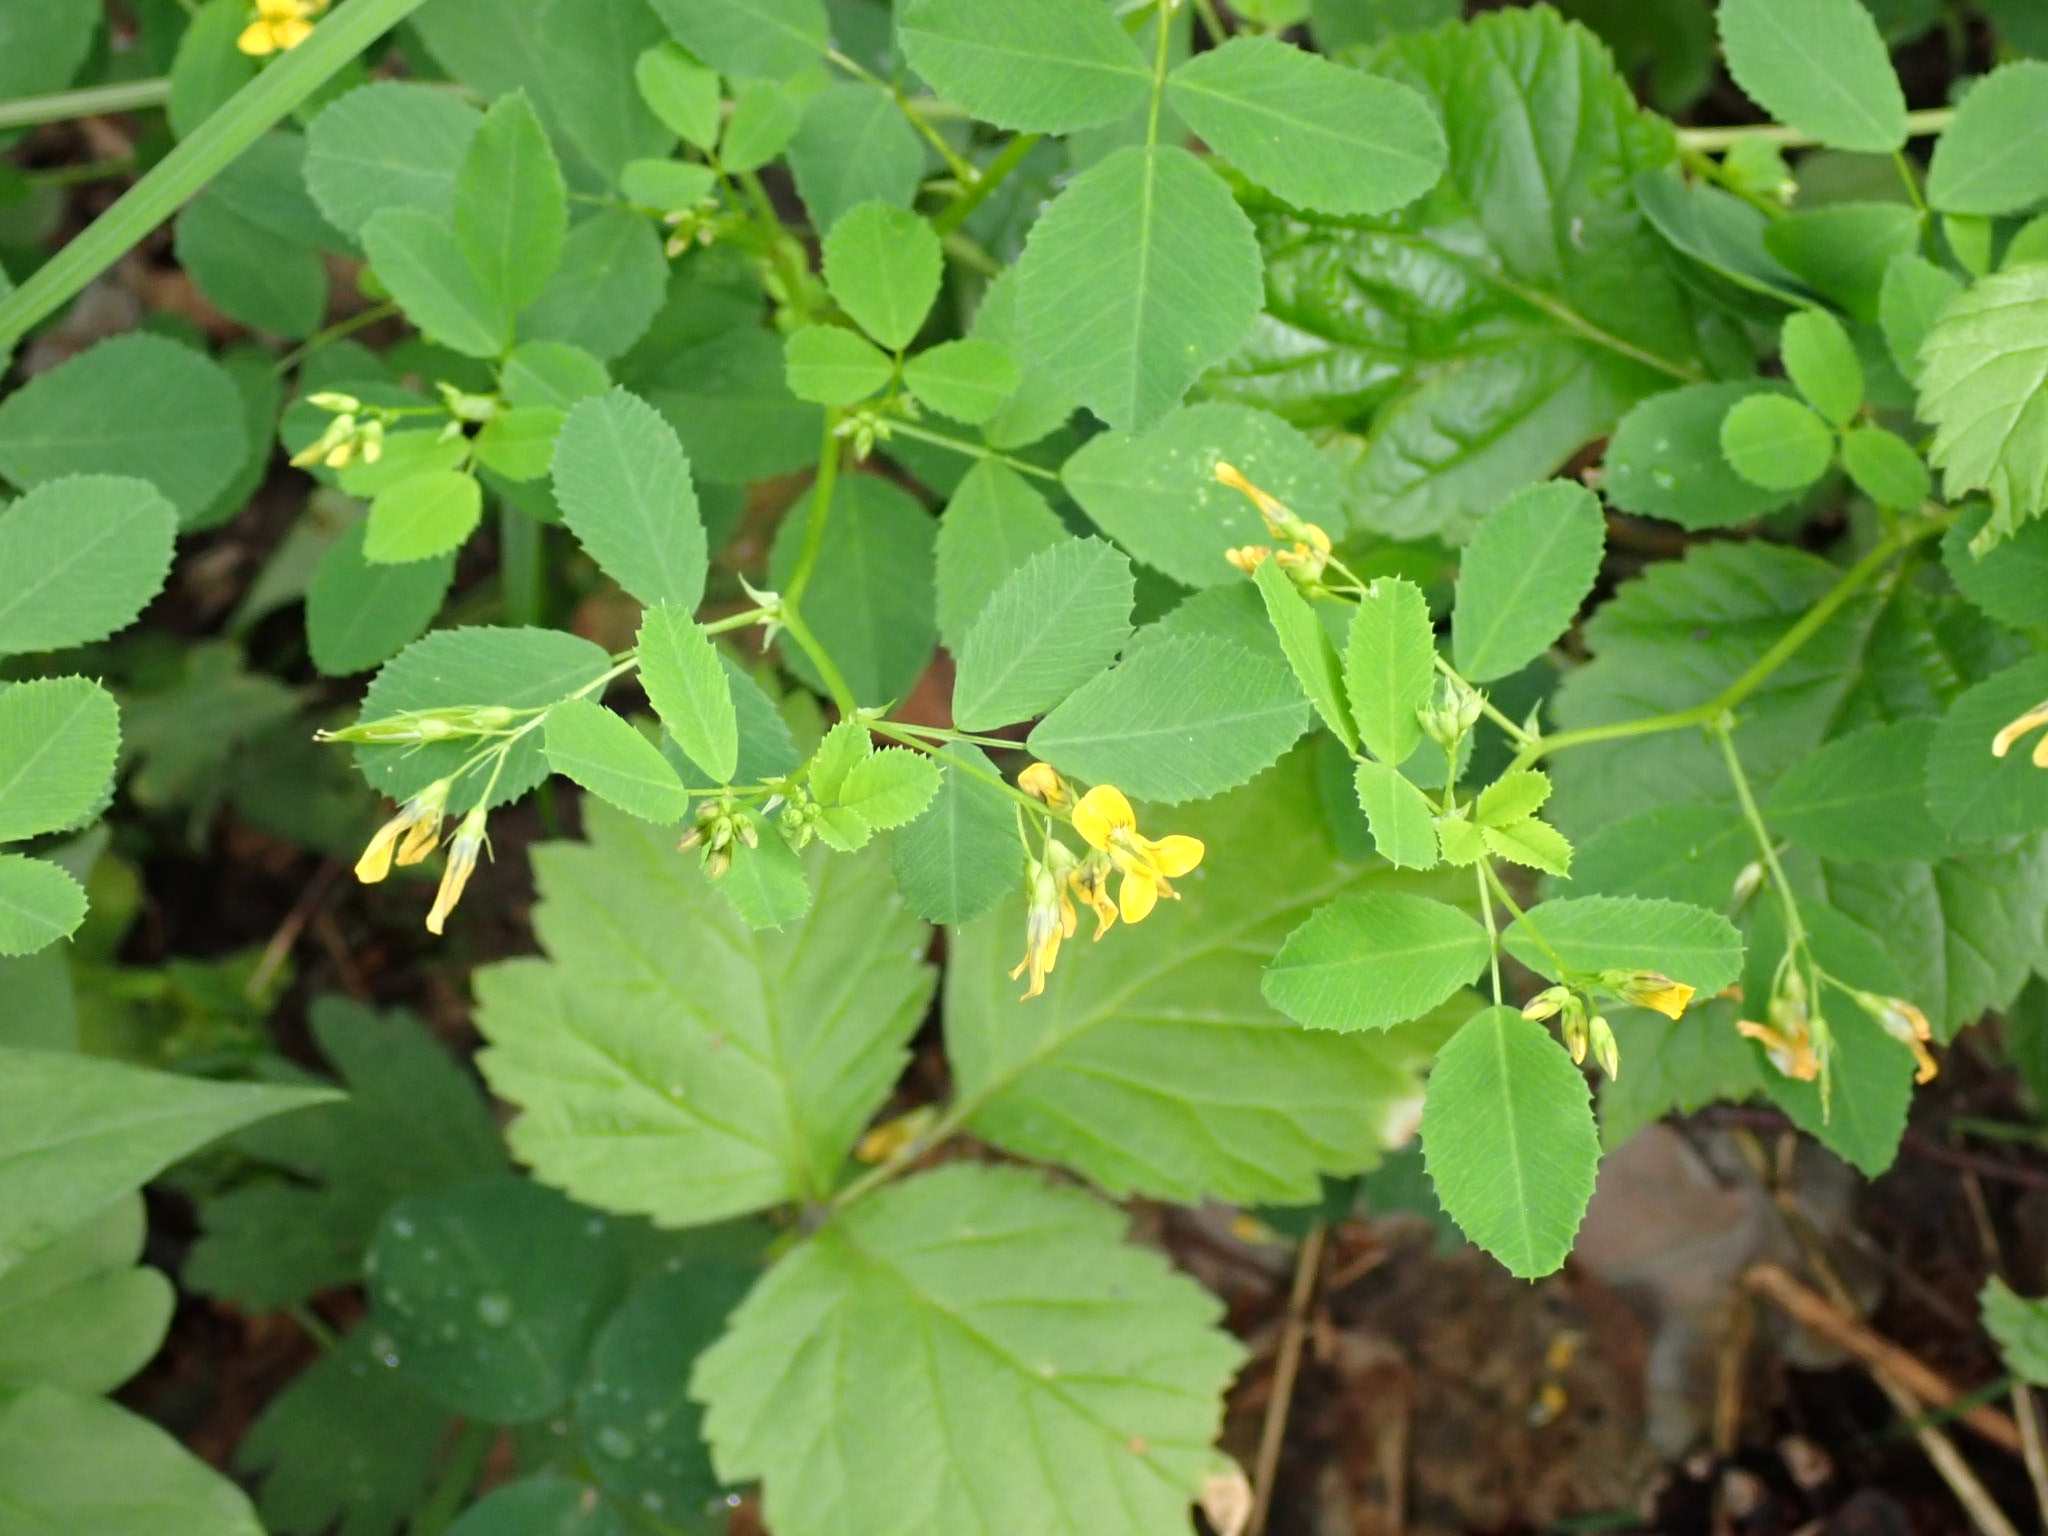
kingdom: Plantae
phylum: Tracheophyta
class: Magnoliopsida
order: Fabales
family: Fabaceae
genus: Medicago
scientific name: Medicago platycarpos
